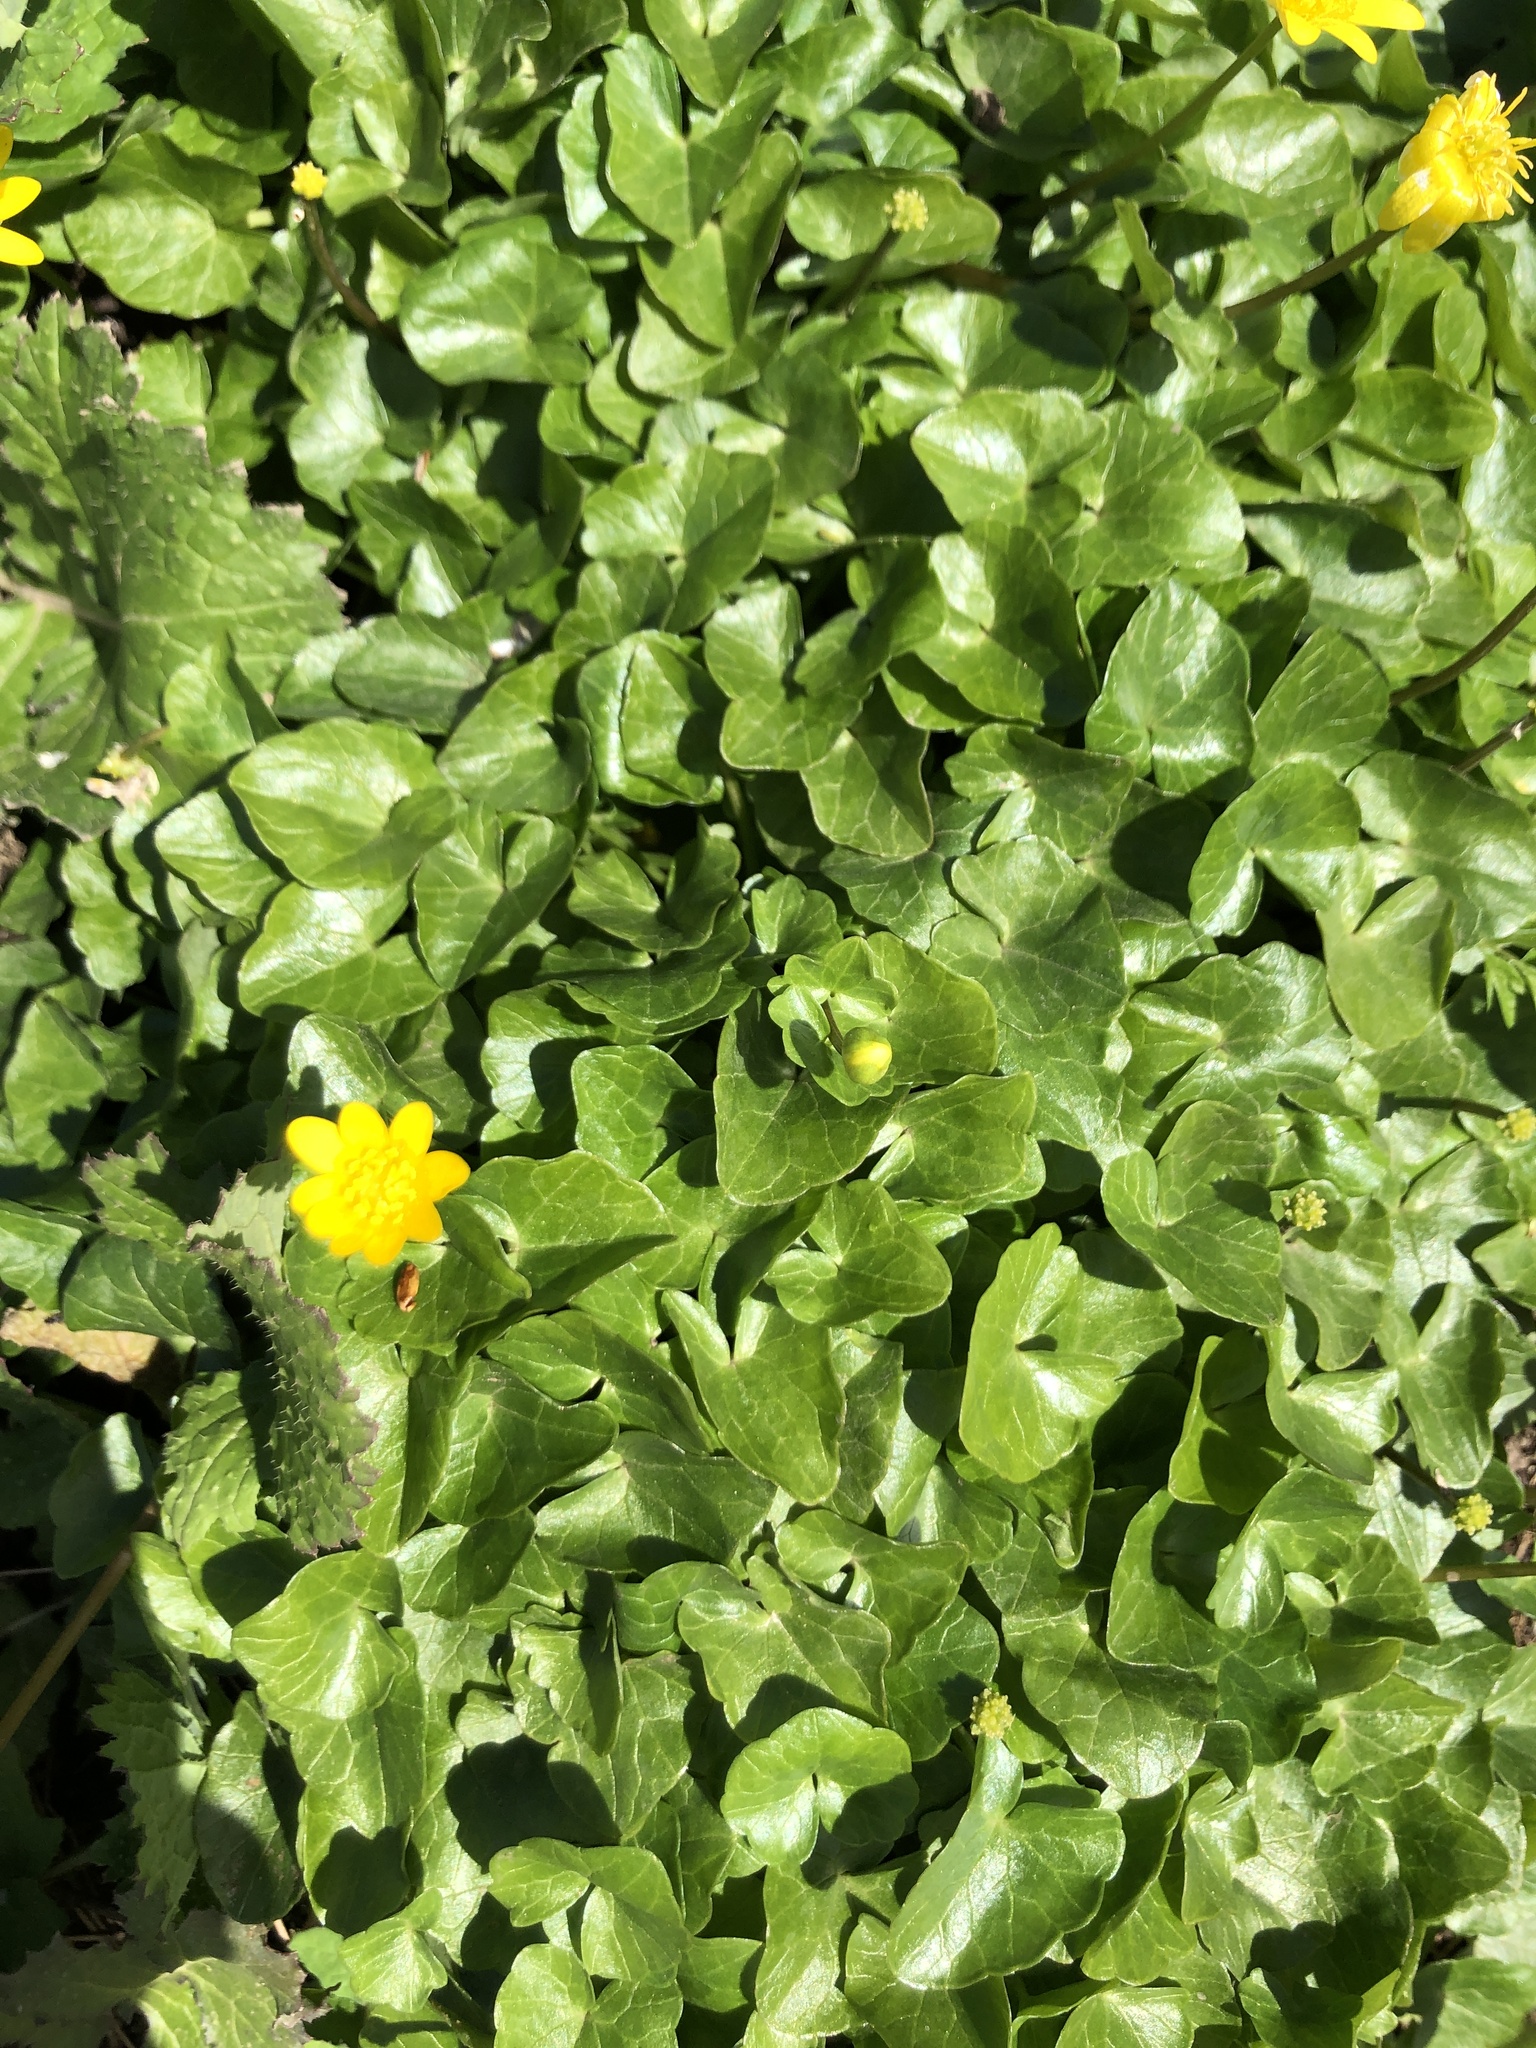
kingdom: Plantae
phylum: Tracheophyta
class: Magnoliopsida
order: Ranunculales
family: Ranunculaceae
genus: Ficaria
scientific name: Ficaria verna
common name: Lesser celandine
